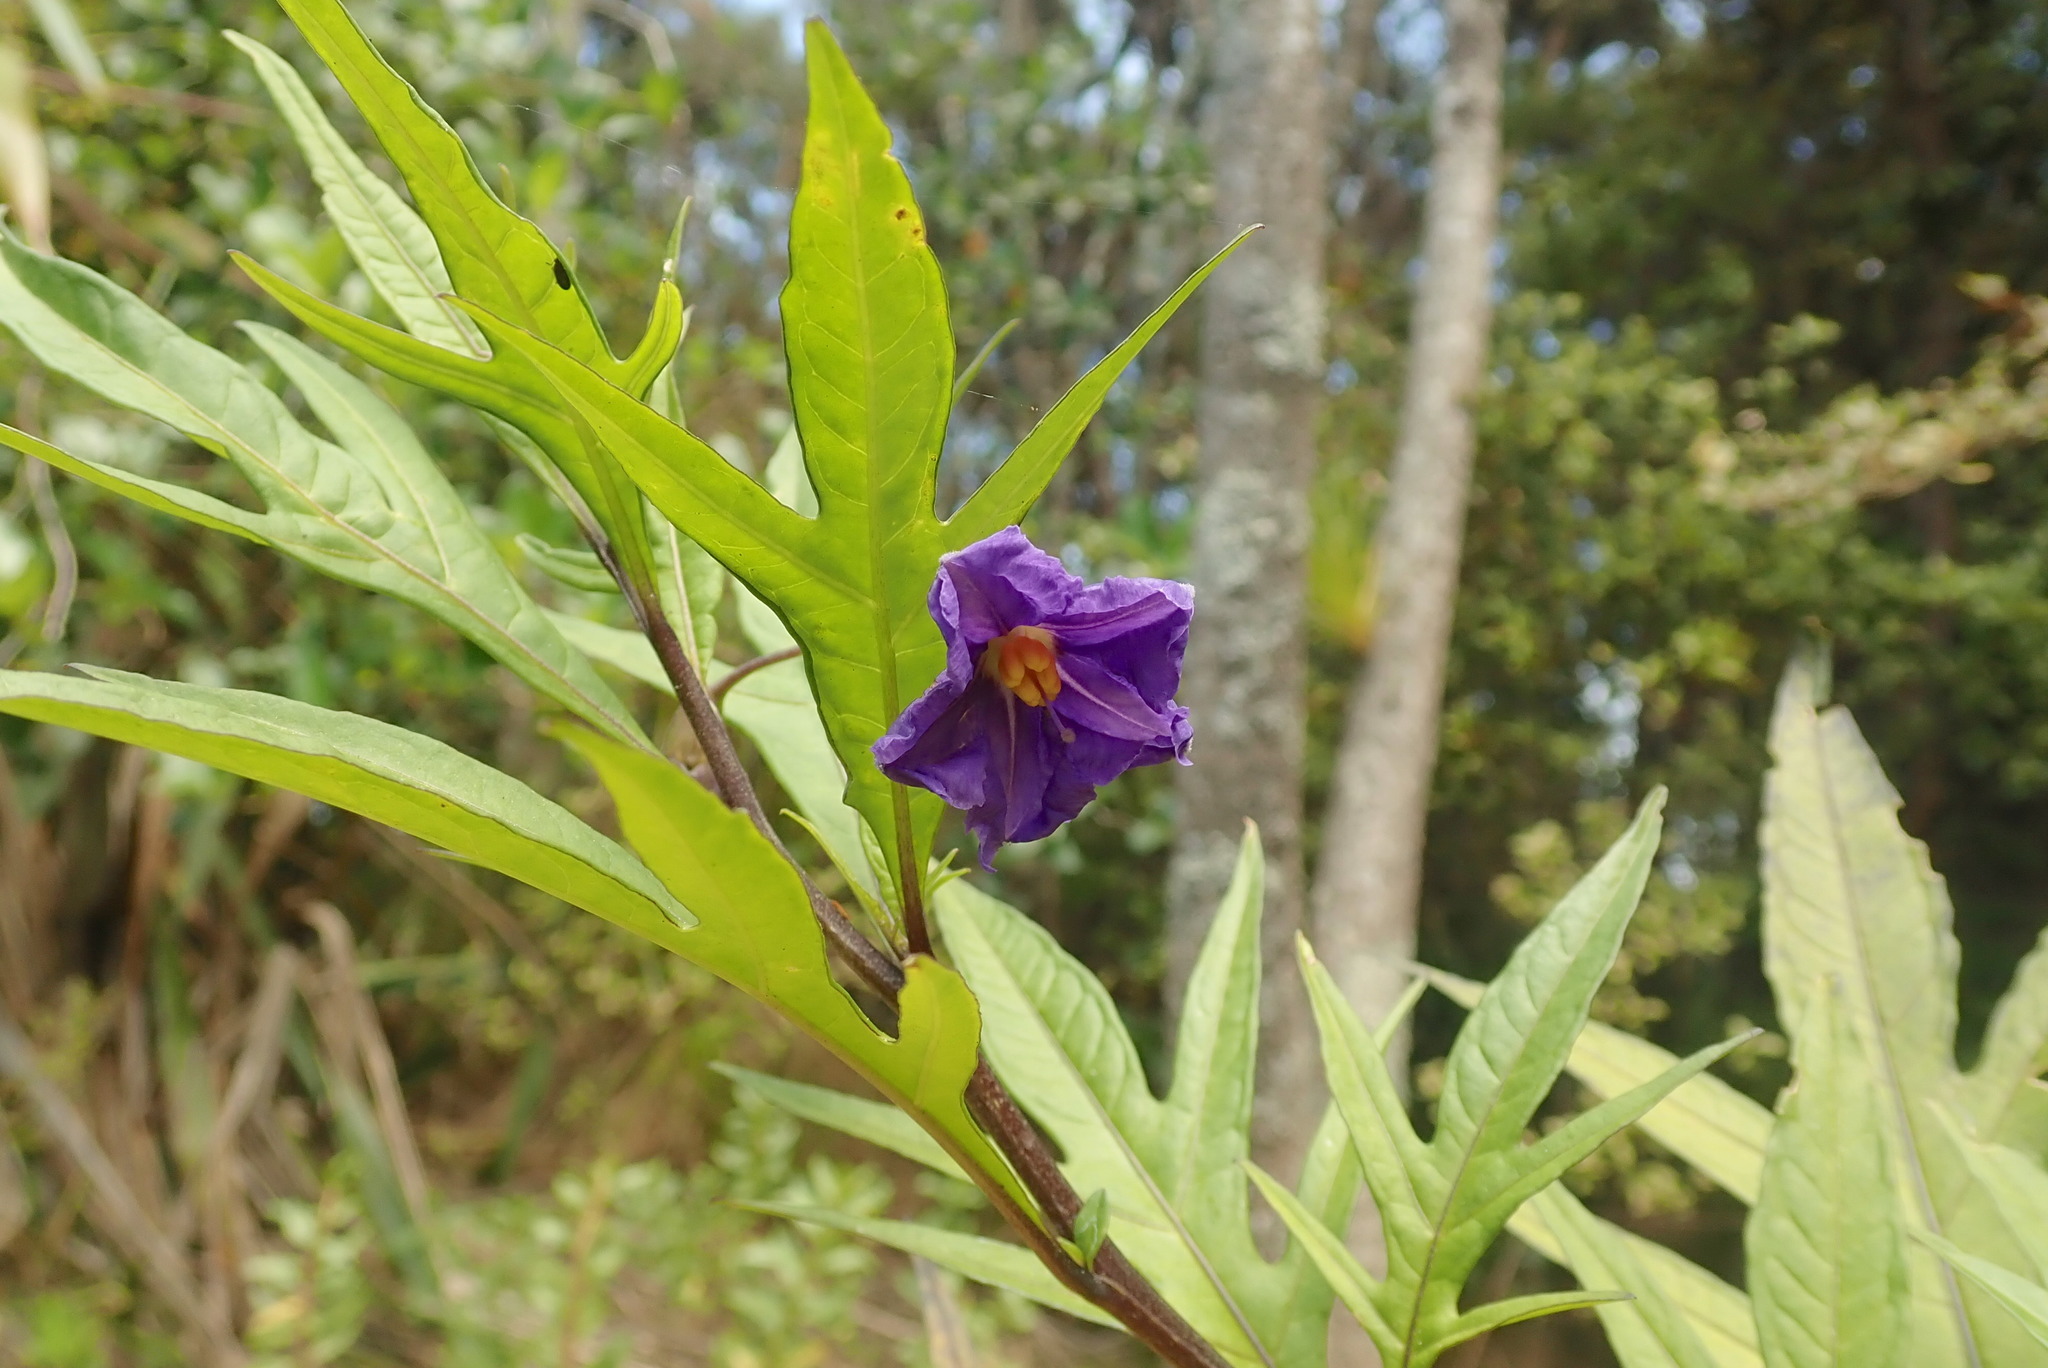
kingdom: Plantae
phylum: Tracheophyta
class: Magnoliopsida
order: Solanales
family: Solanaceae
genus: Solanum
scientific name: Solanum laciniatum
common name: Kangaroo-apple
